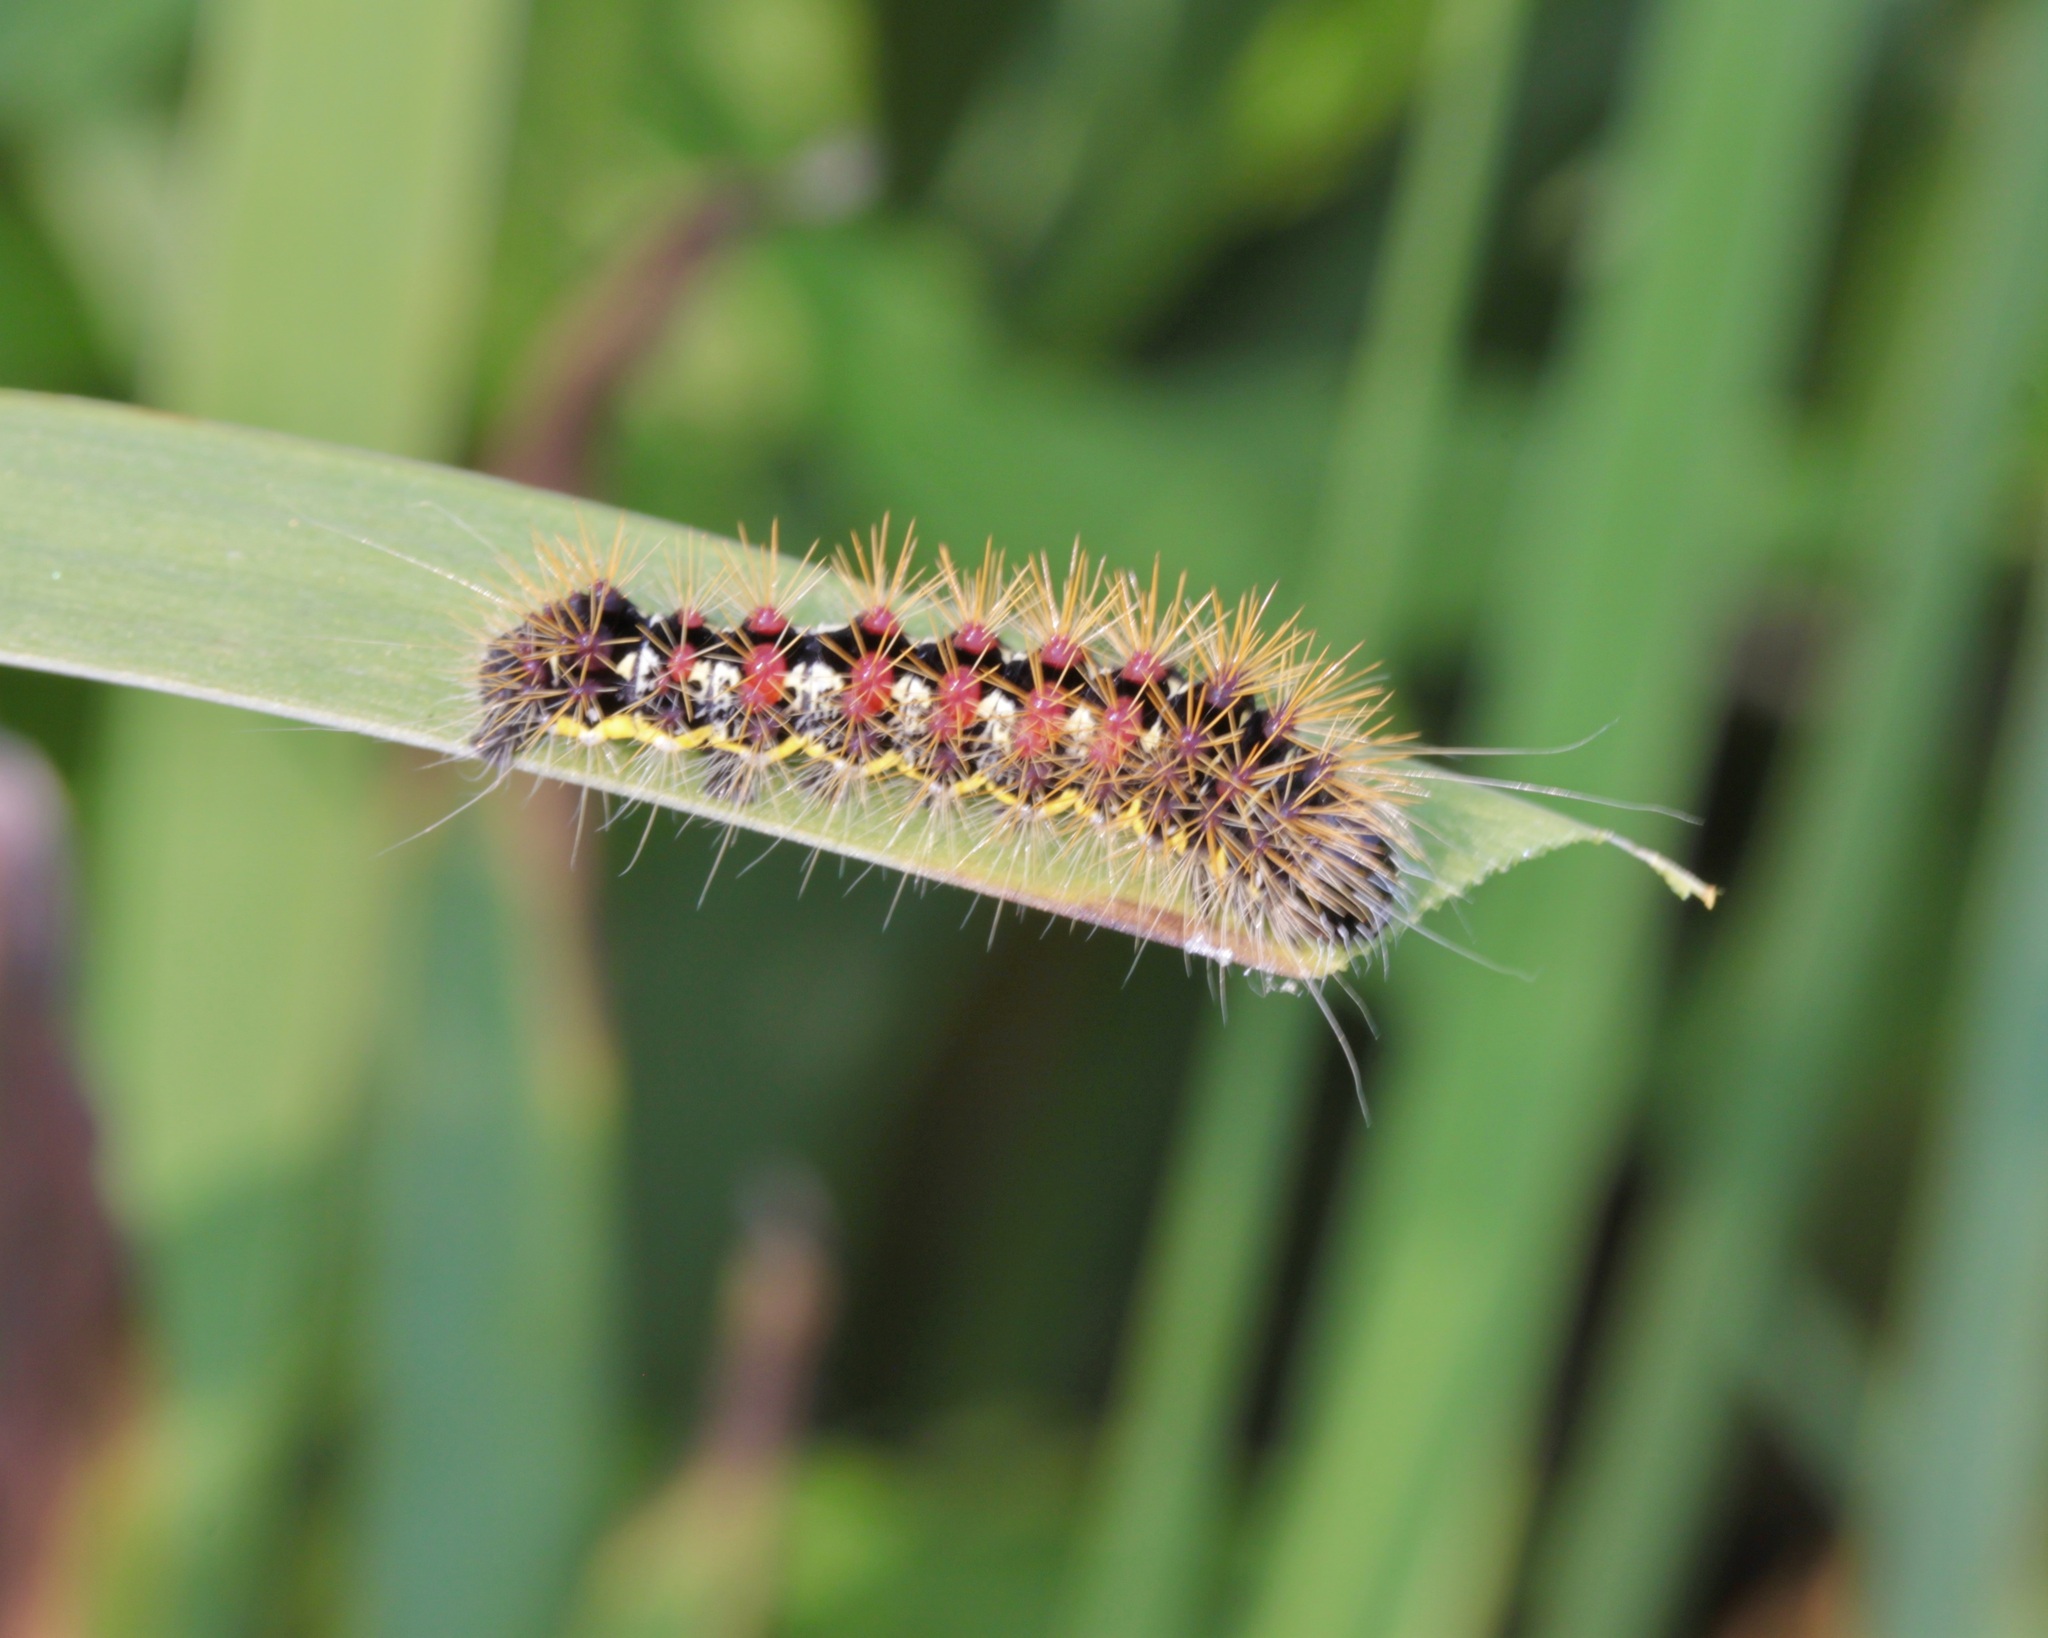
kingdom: Animalia
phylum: Arthropoda
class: Insecta
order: Lepidoptera
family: Noctuidae
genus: Acronicta
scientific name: Acronicta oblinita
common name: Smeared dagger
